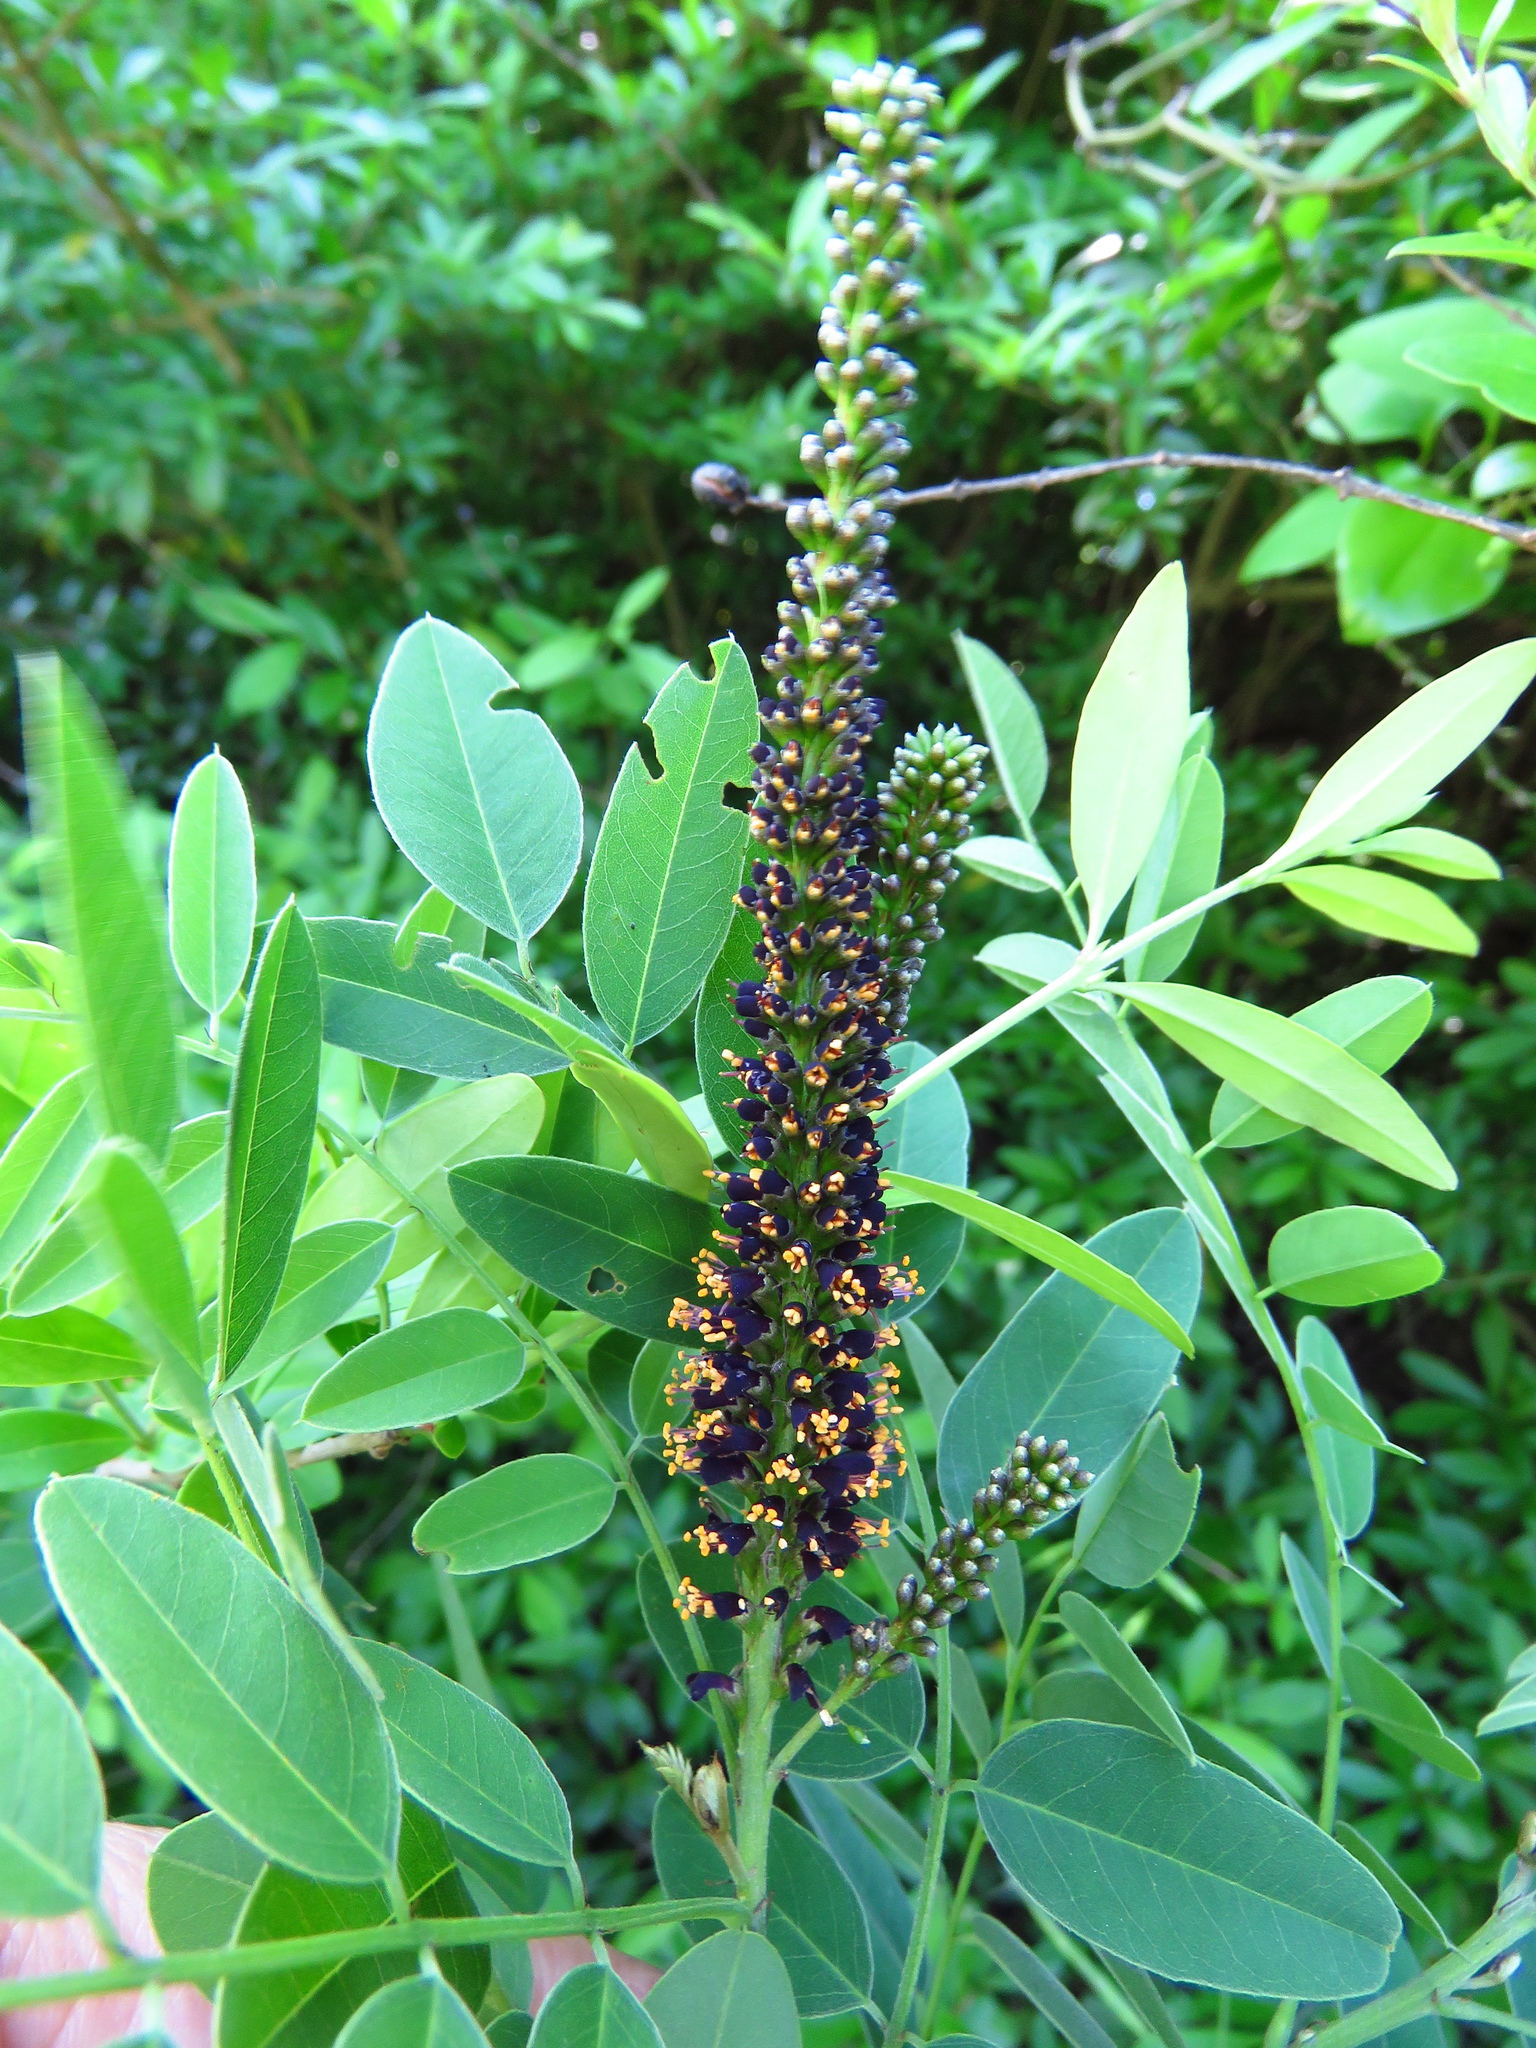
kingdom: Plantae
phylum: Tracheophyta
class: Magnoliopsida
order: Fabales
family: Fabaceae
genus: Amorpha
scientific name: Amorpha fruticosa
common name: False indigo
